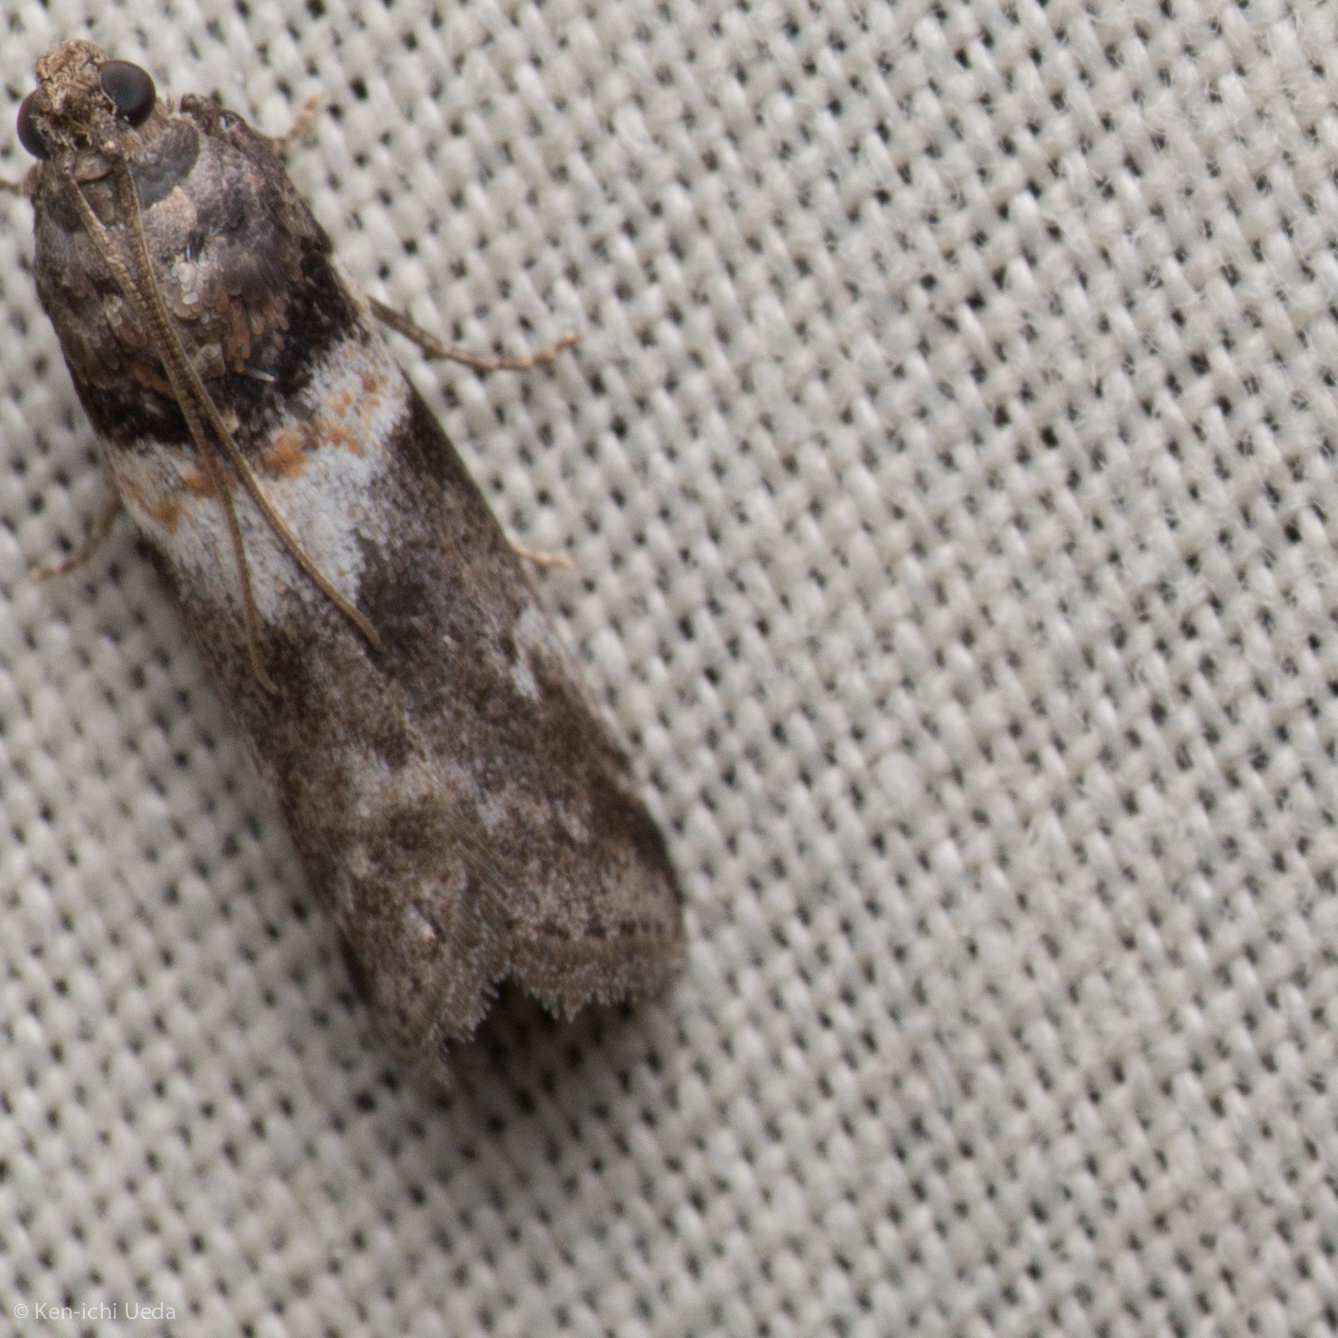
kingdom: Animalia
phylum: Arthropoda
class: Insecta
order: Lepidoptera
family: Pyralidae
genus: Salebriaria
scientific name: Salebriaria tenebrosella
